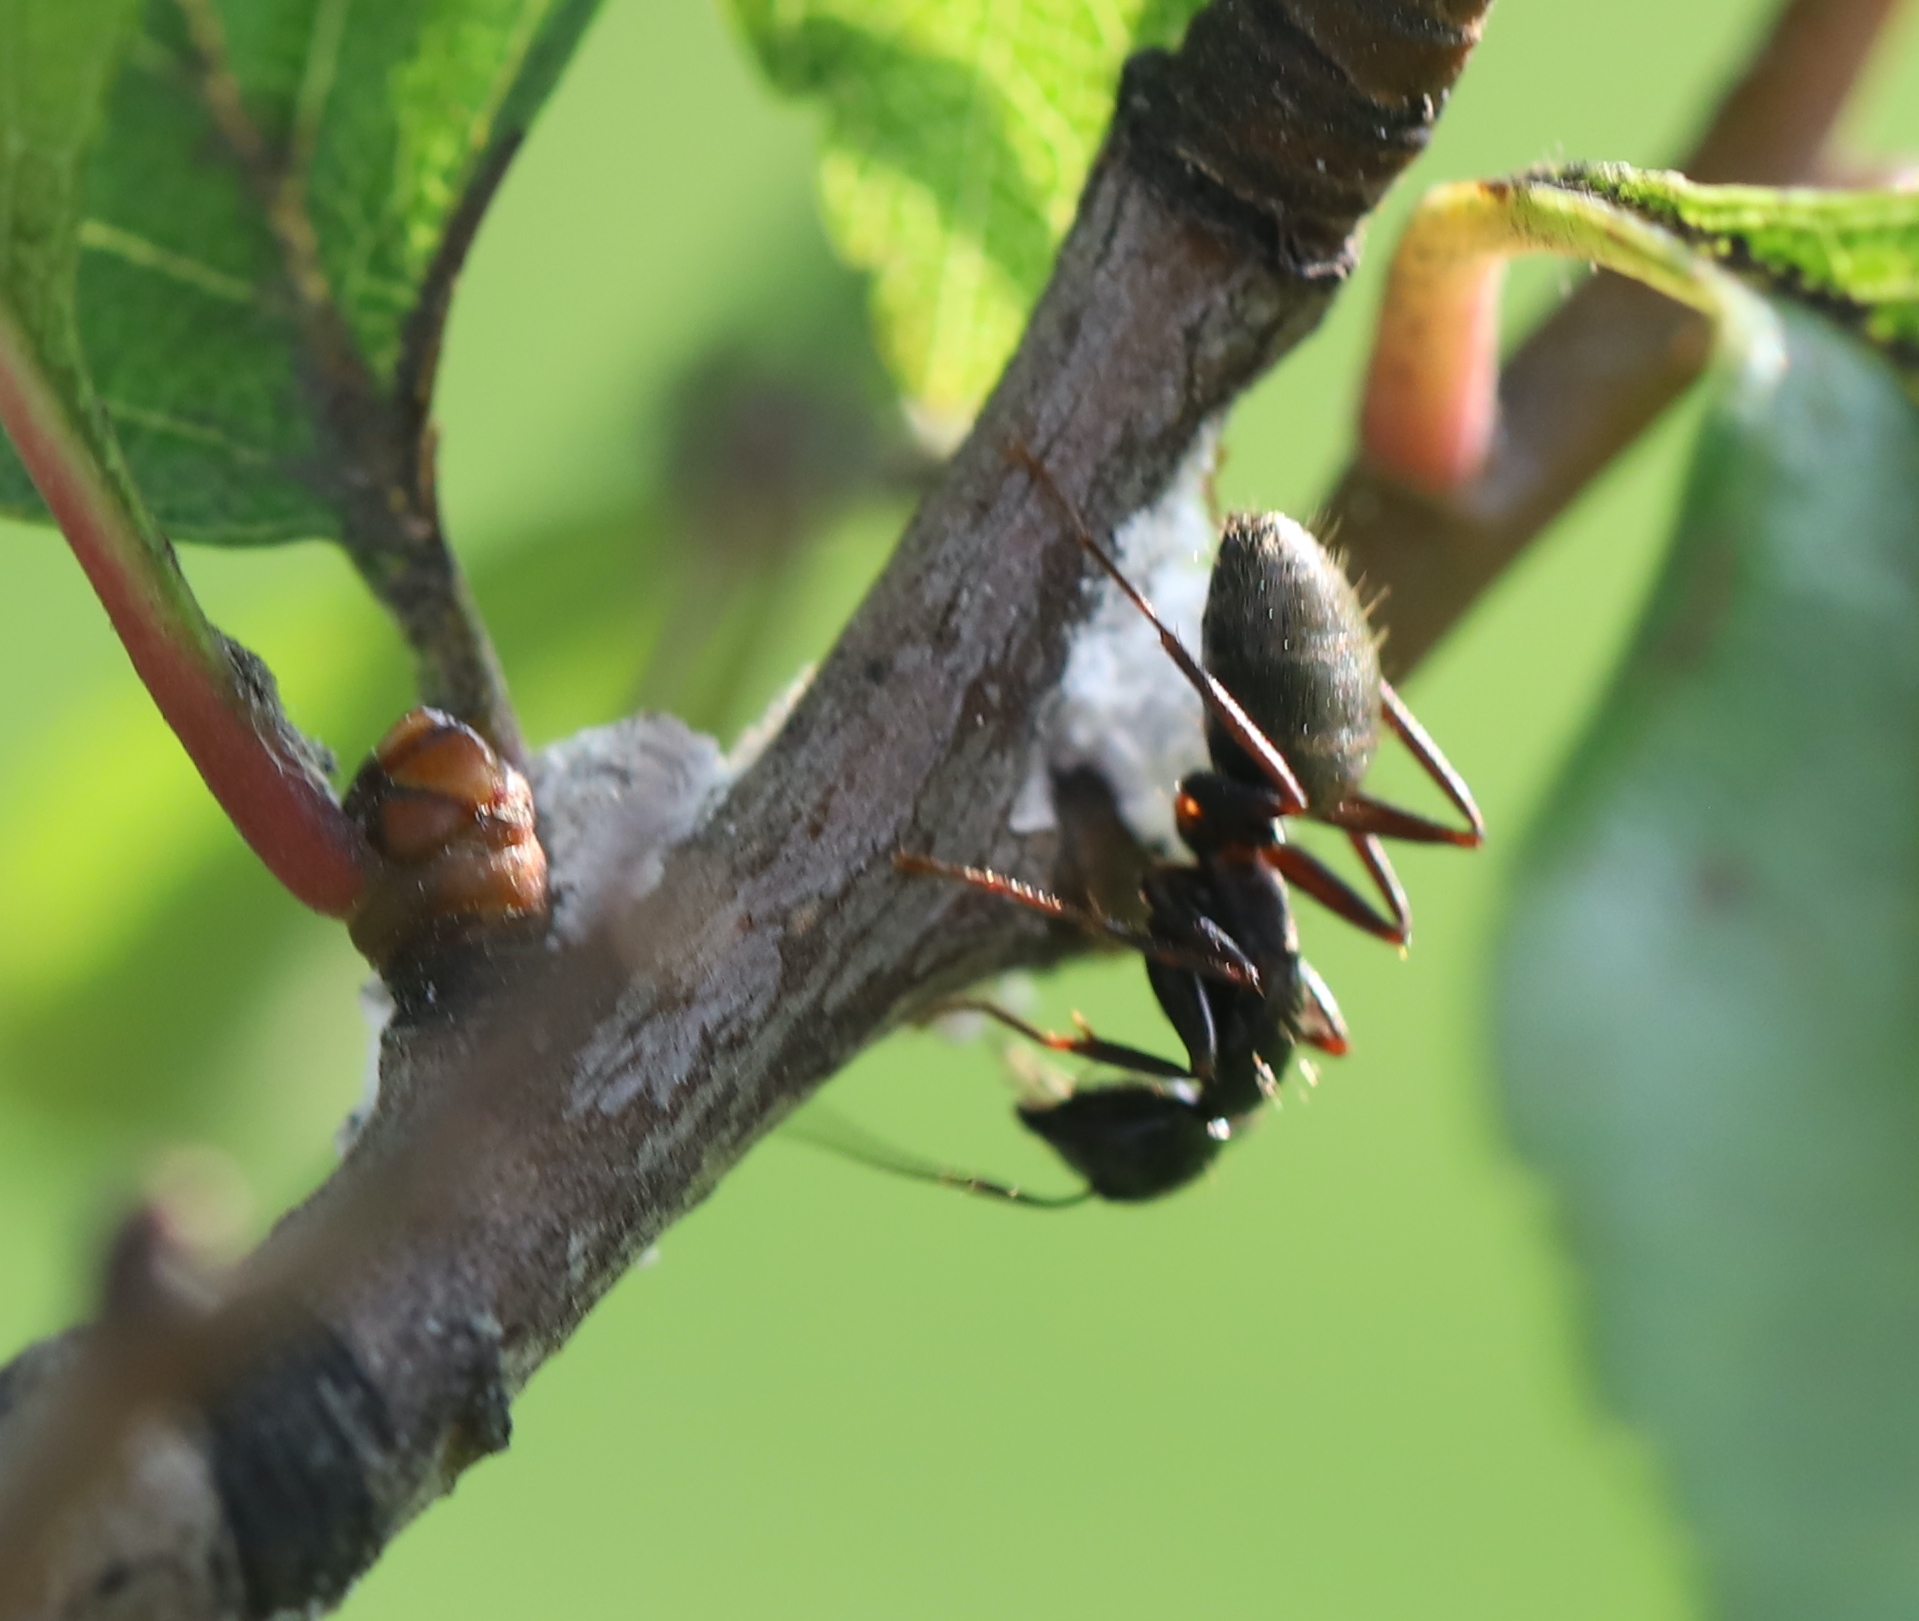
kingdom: Animalia
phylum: Arthropoda
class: Insecta
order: Hymenoptera
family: Formicidae
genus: Camponotus
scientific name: Camponotus pennsylvanicus
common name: Black carpenter ant
